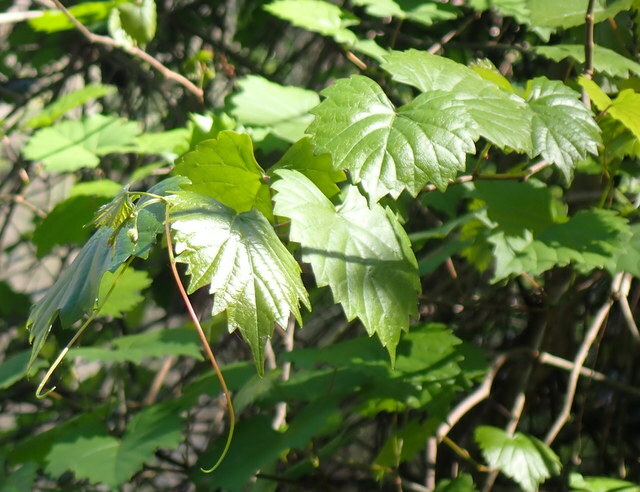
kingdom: Plantae
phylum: Tracheophyta
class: Magnoliopsida
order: Vitales
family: Vitaceae
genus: Vitis
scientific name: Vitis rotundifolia
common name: Muscadine grape
